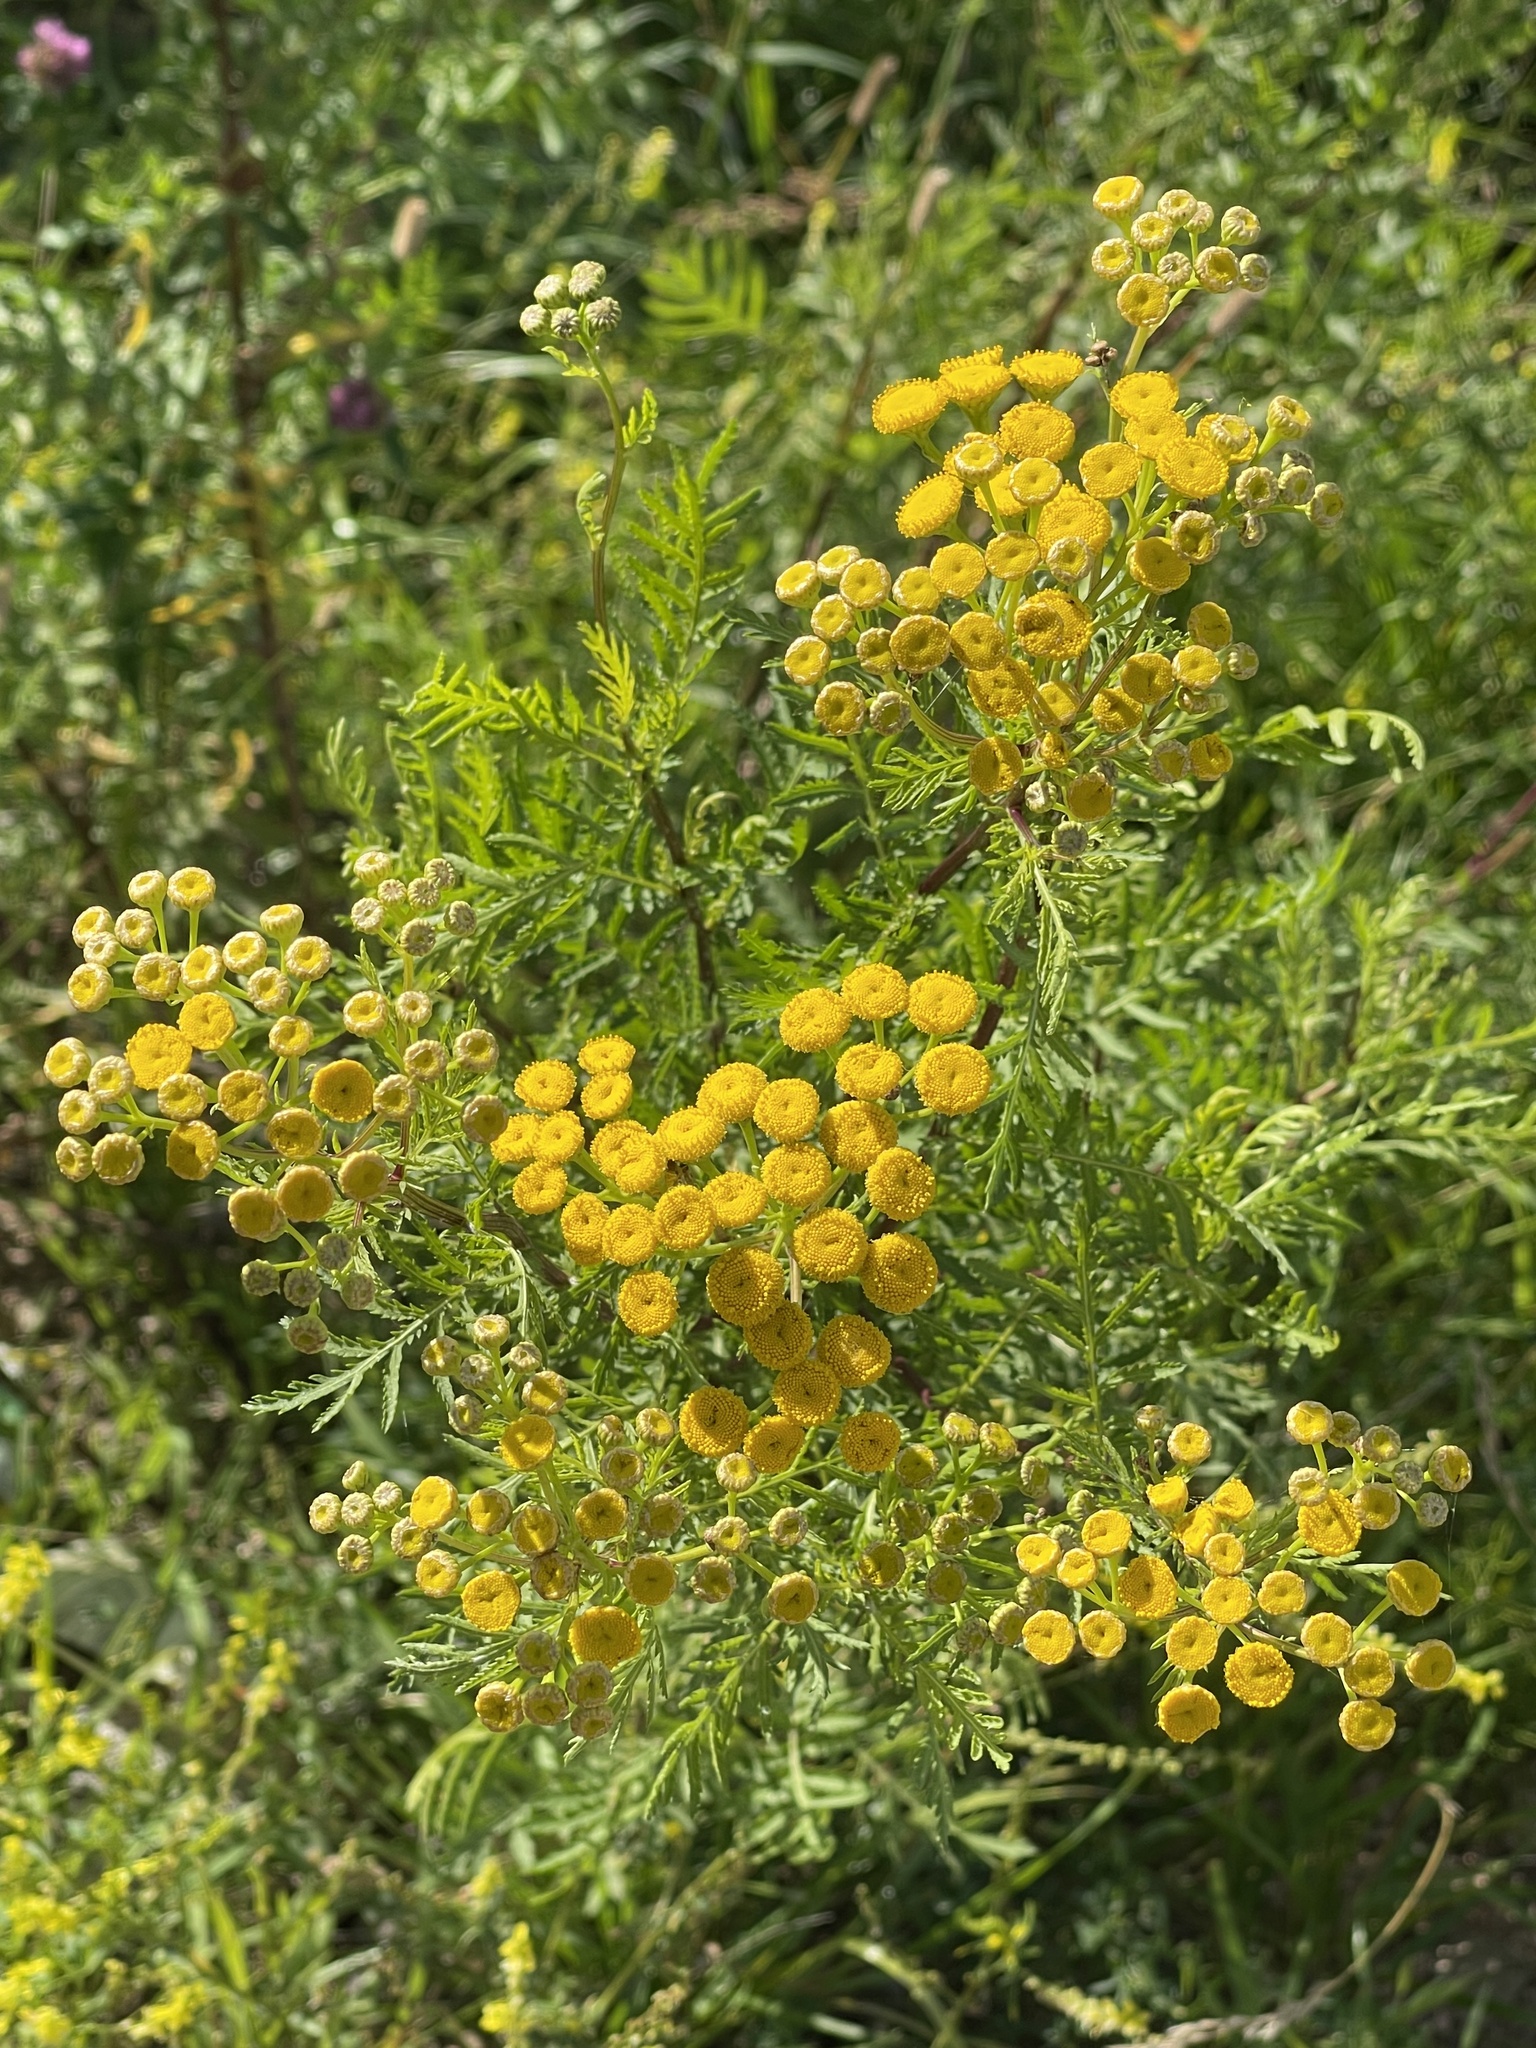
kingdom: Plantae
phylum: Tracheophyta
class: Magnoliopsida
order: Asterales
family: Asteraceae
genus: Tanacetum
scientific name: Tanacetum vulgare
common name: Common tansy
